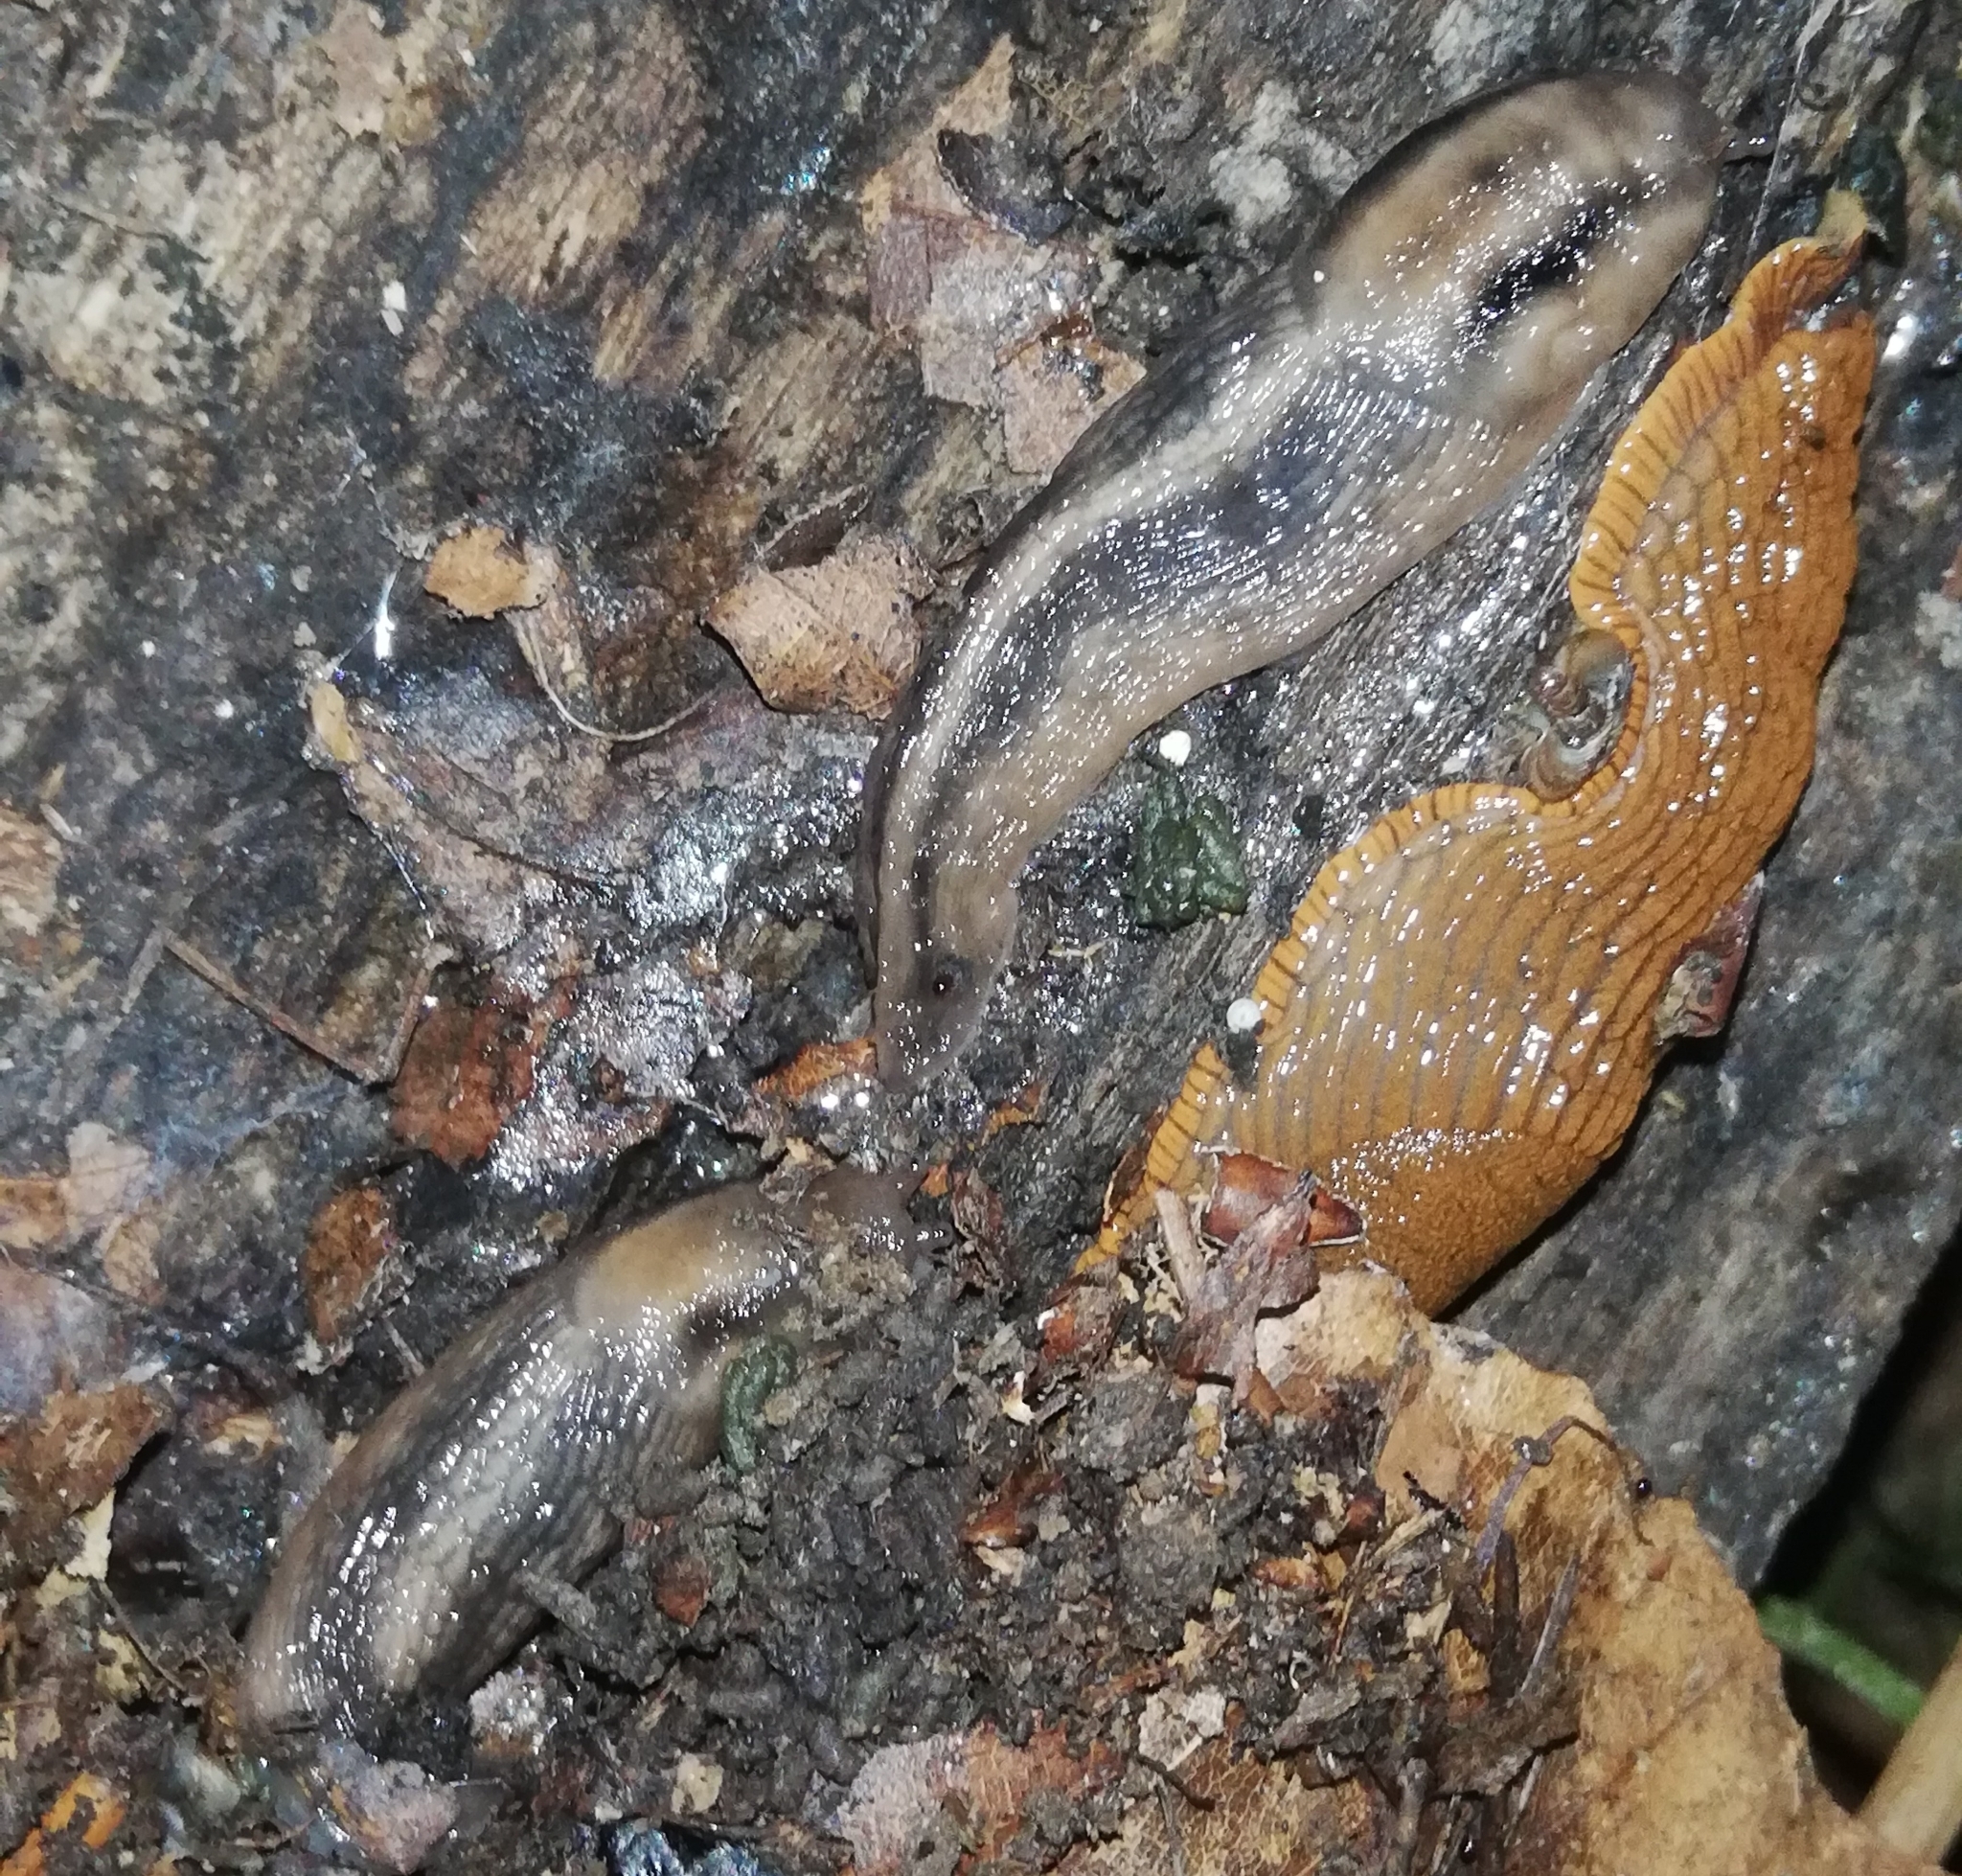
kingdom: Animalia
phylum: Mollusca
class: Gastropoda
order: Stylommatophora
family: Limacidae
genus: Lehmannia
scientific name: Lehmannia marginata
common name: Tree slug
